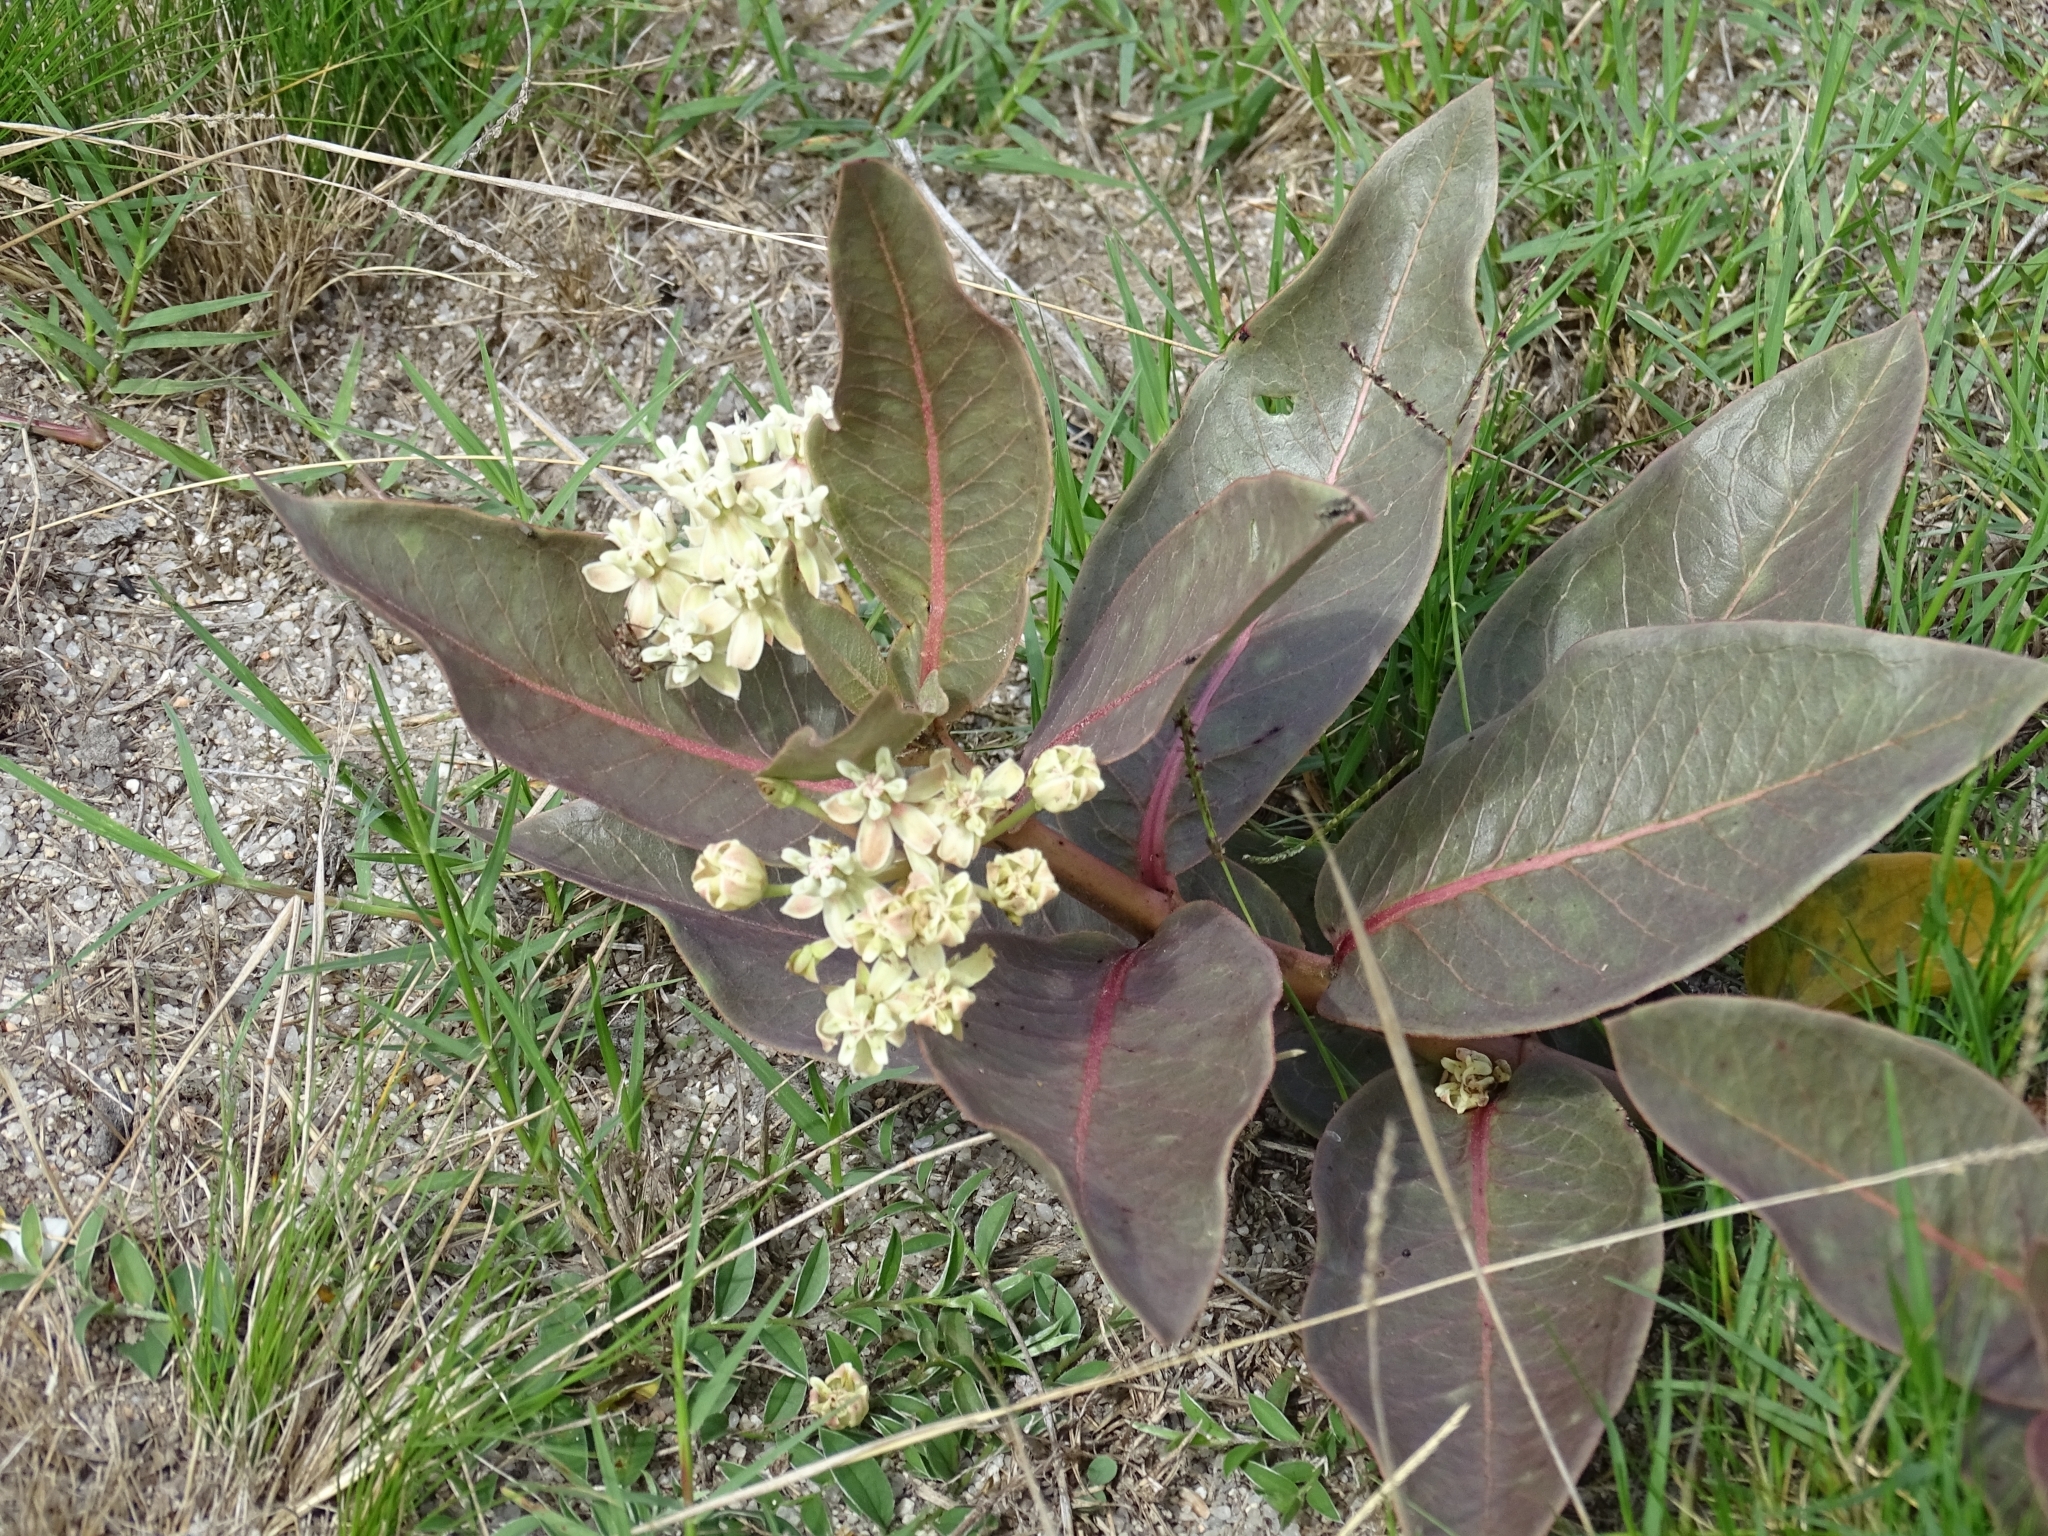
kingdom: Plantae
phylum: Tracheophyta
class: Magnoliopsida
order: Gentianales
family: Apocynaceae
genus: Asclepias
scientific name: Asclepias candida
